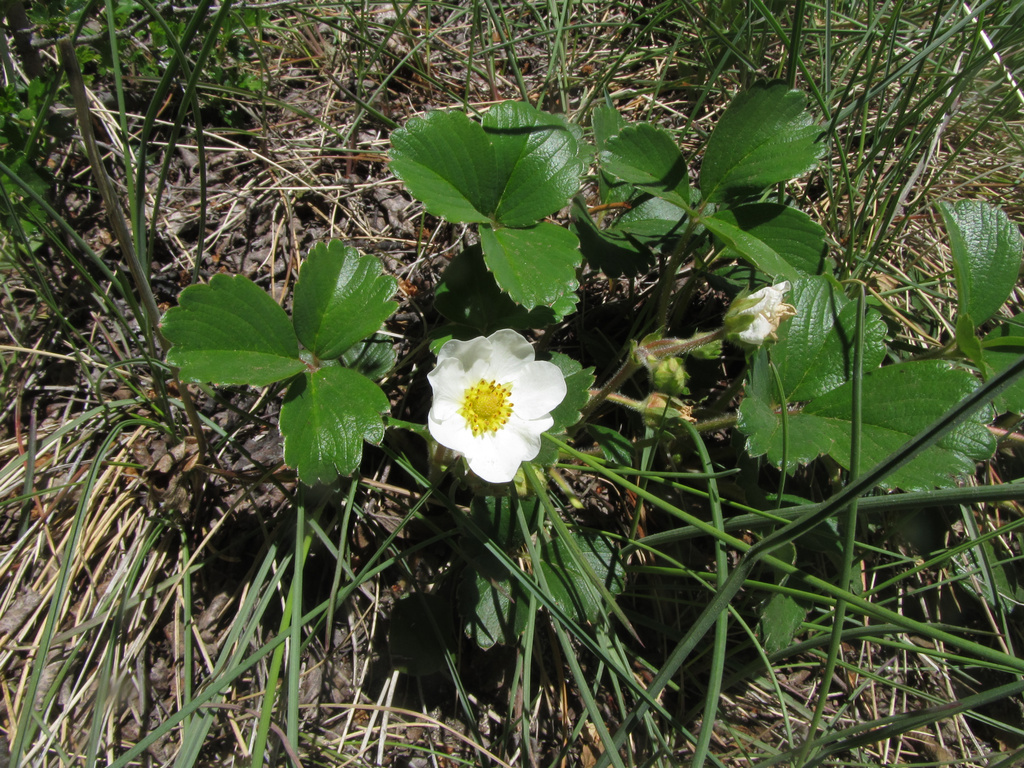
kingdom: Plantae
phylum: Tracheophyta
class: Magnoliopsida
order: Rosales
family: Rosaceae
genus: Fragaria
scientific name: Fragaria chiloensis
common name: Beach strawberry
